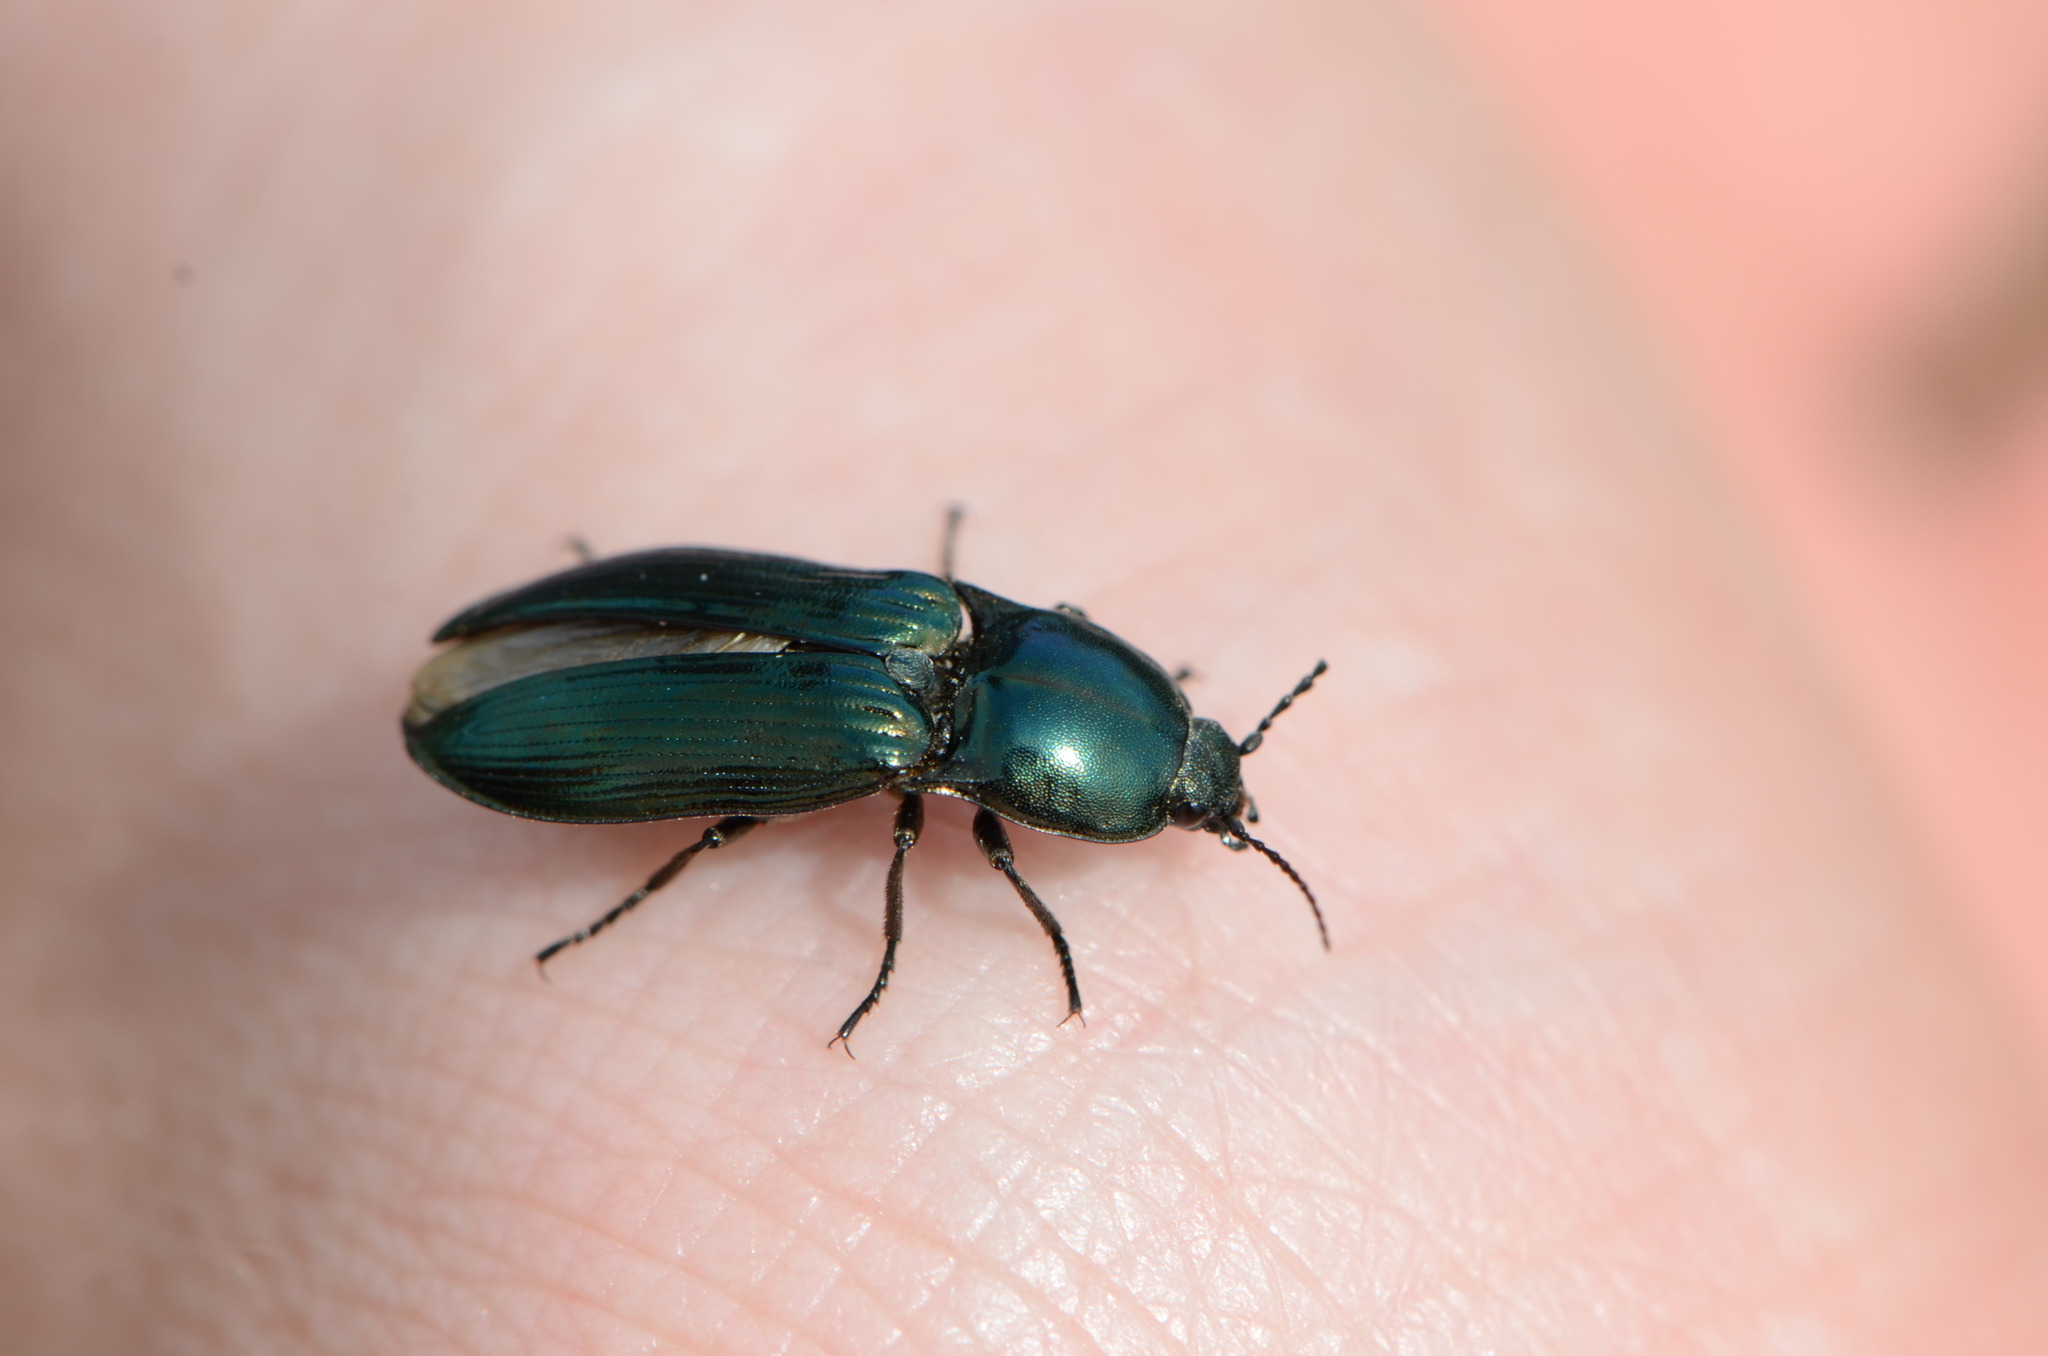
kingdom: Animalia
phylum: Arthropoda
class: Insecta
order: Coleoptera
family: Elateridae
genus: Selatosomus
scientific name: Selatosomus aeneus
